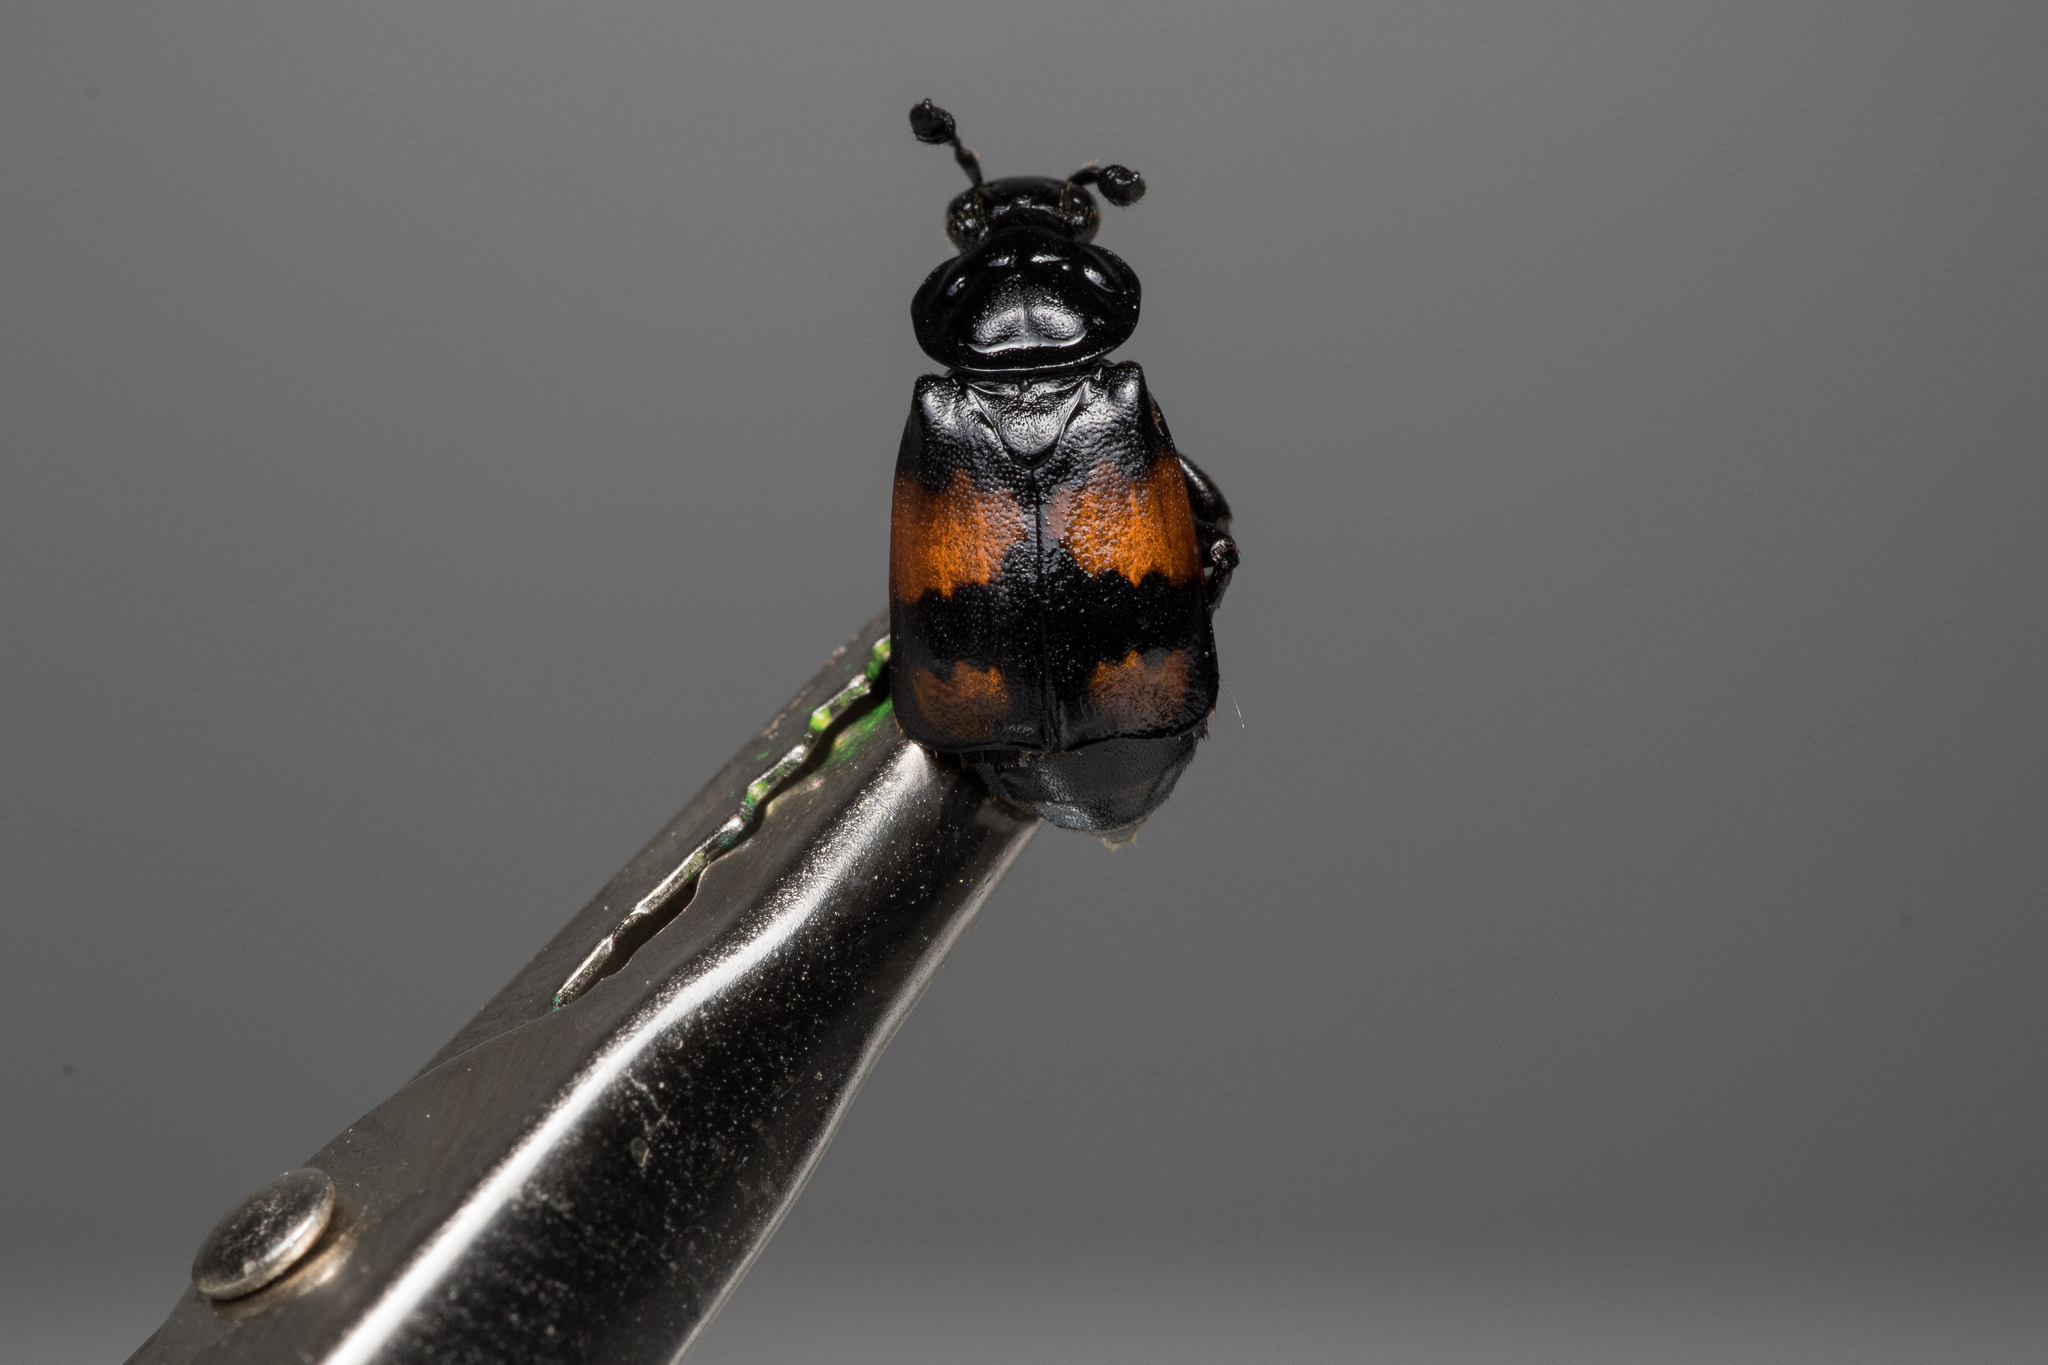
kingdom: Animalia
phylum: Arthropoda
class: Insecta
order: Coleoptera
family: Staphylinidae
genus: Nicrophorus
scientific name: Nicrophorus vespilloides
